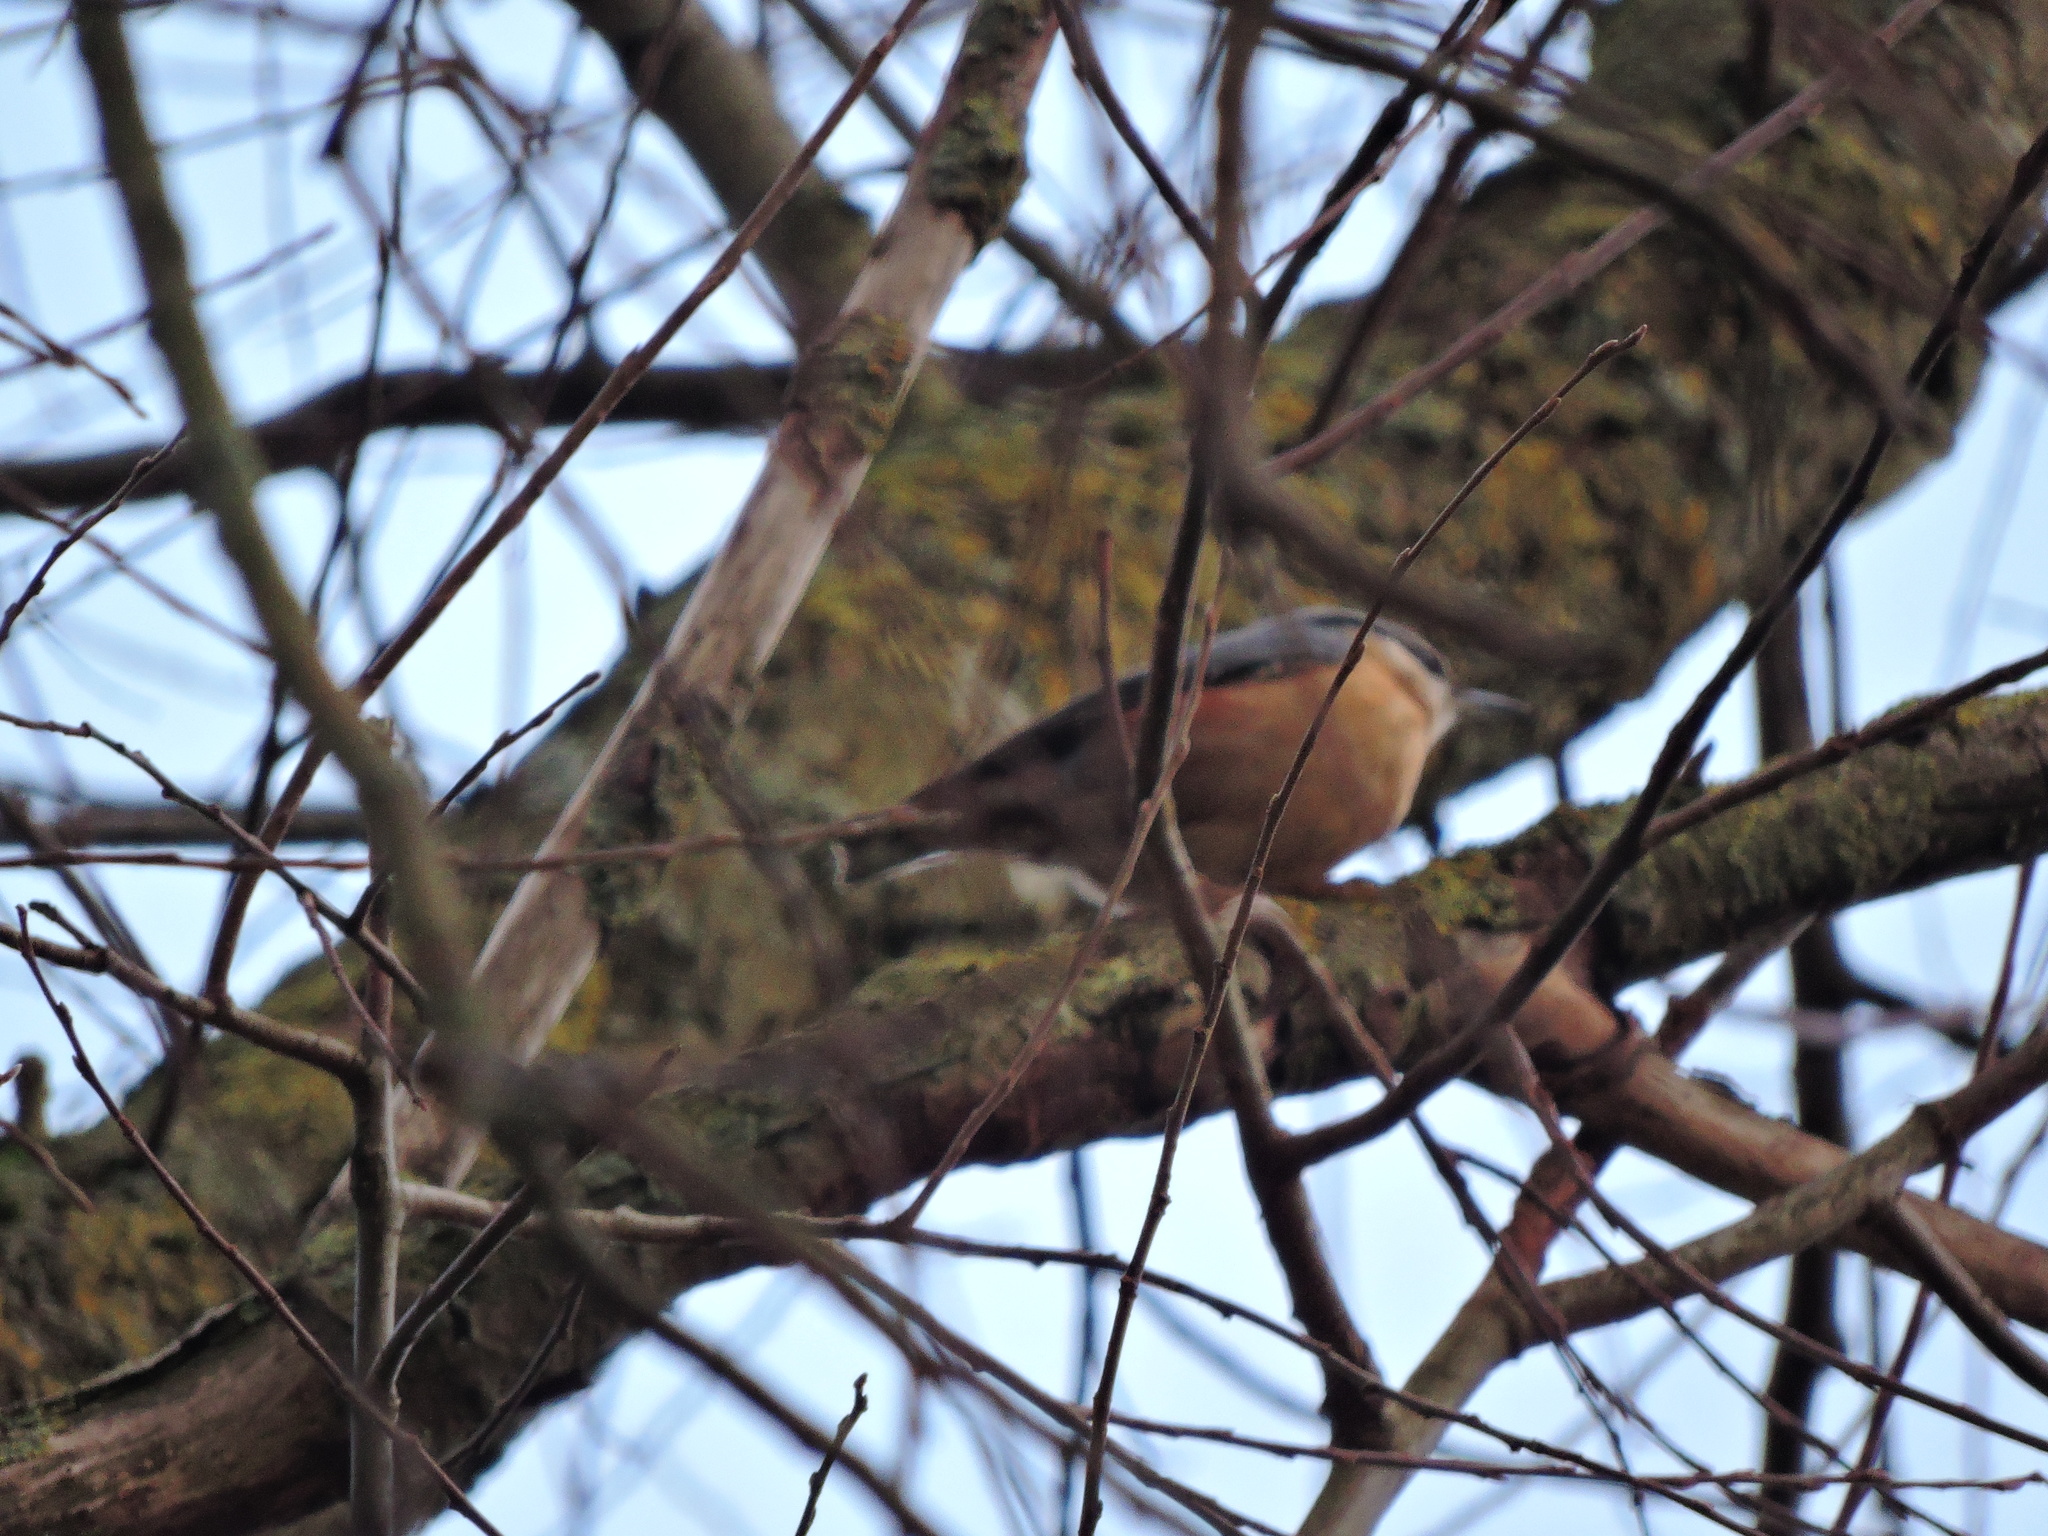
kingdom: Animalia
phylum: Chordata
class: Aves
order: Passeriformes
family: Sittidae
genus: Sitta
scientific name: Sitta europaea
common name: Eurasian nuthatch
